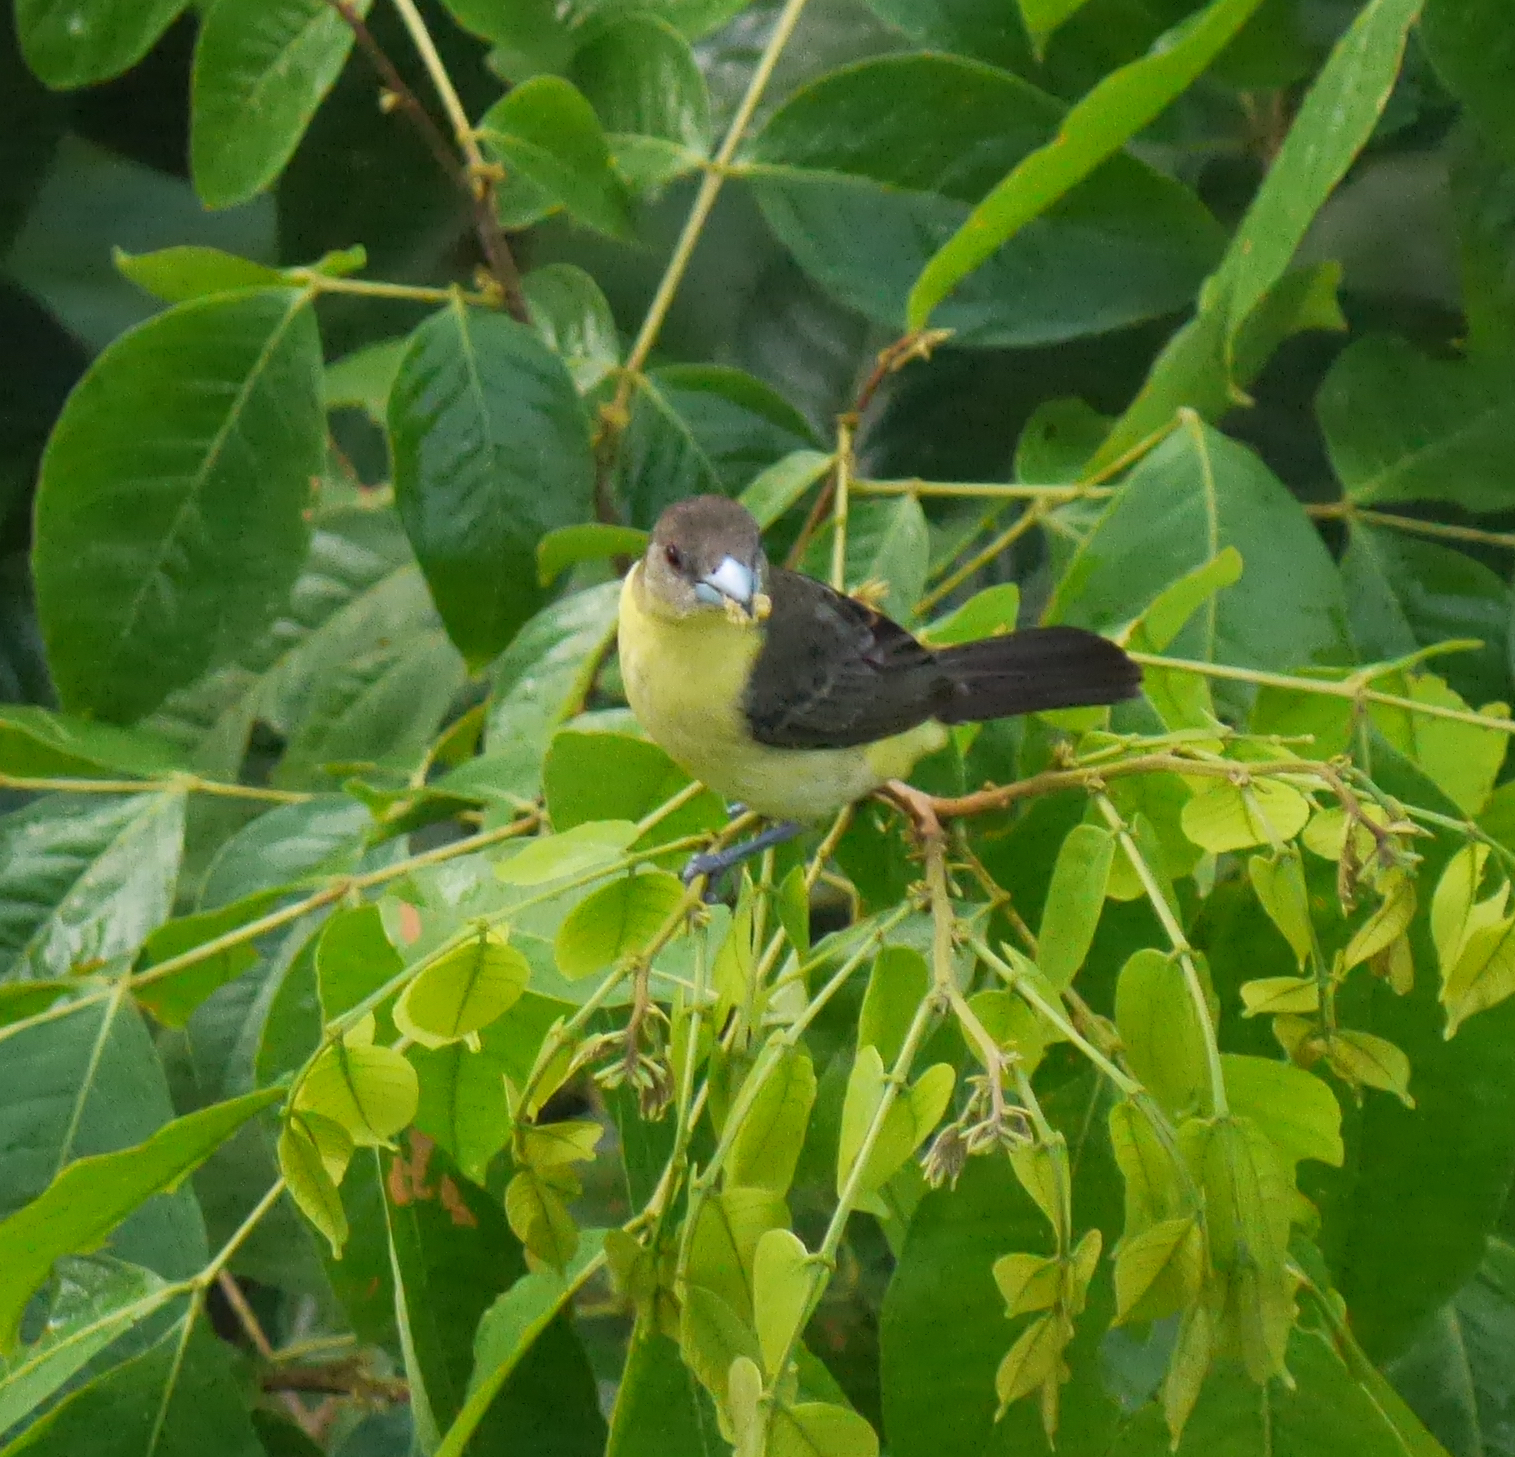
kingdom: Animalia
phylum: Chordata
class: Aves
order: Passeriformes
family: Thraupidae
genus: Ramphocelus
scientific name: Ramphocelus flammigerus
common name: Flame-rumped tanager
